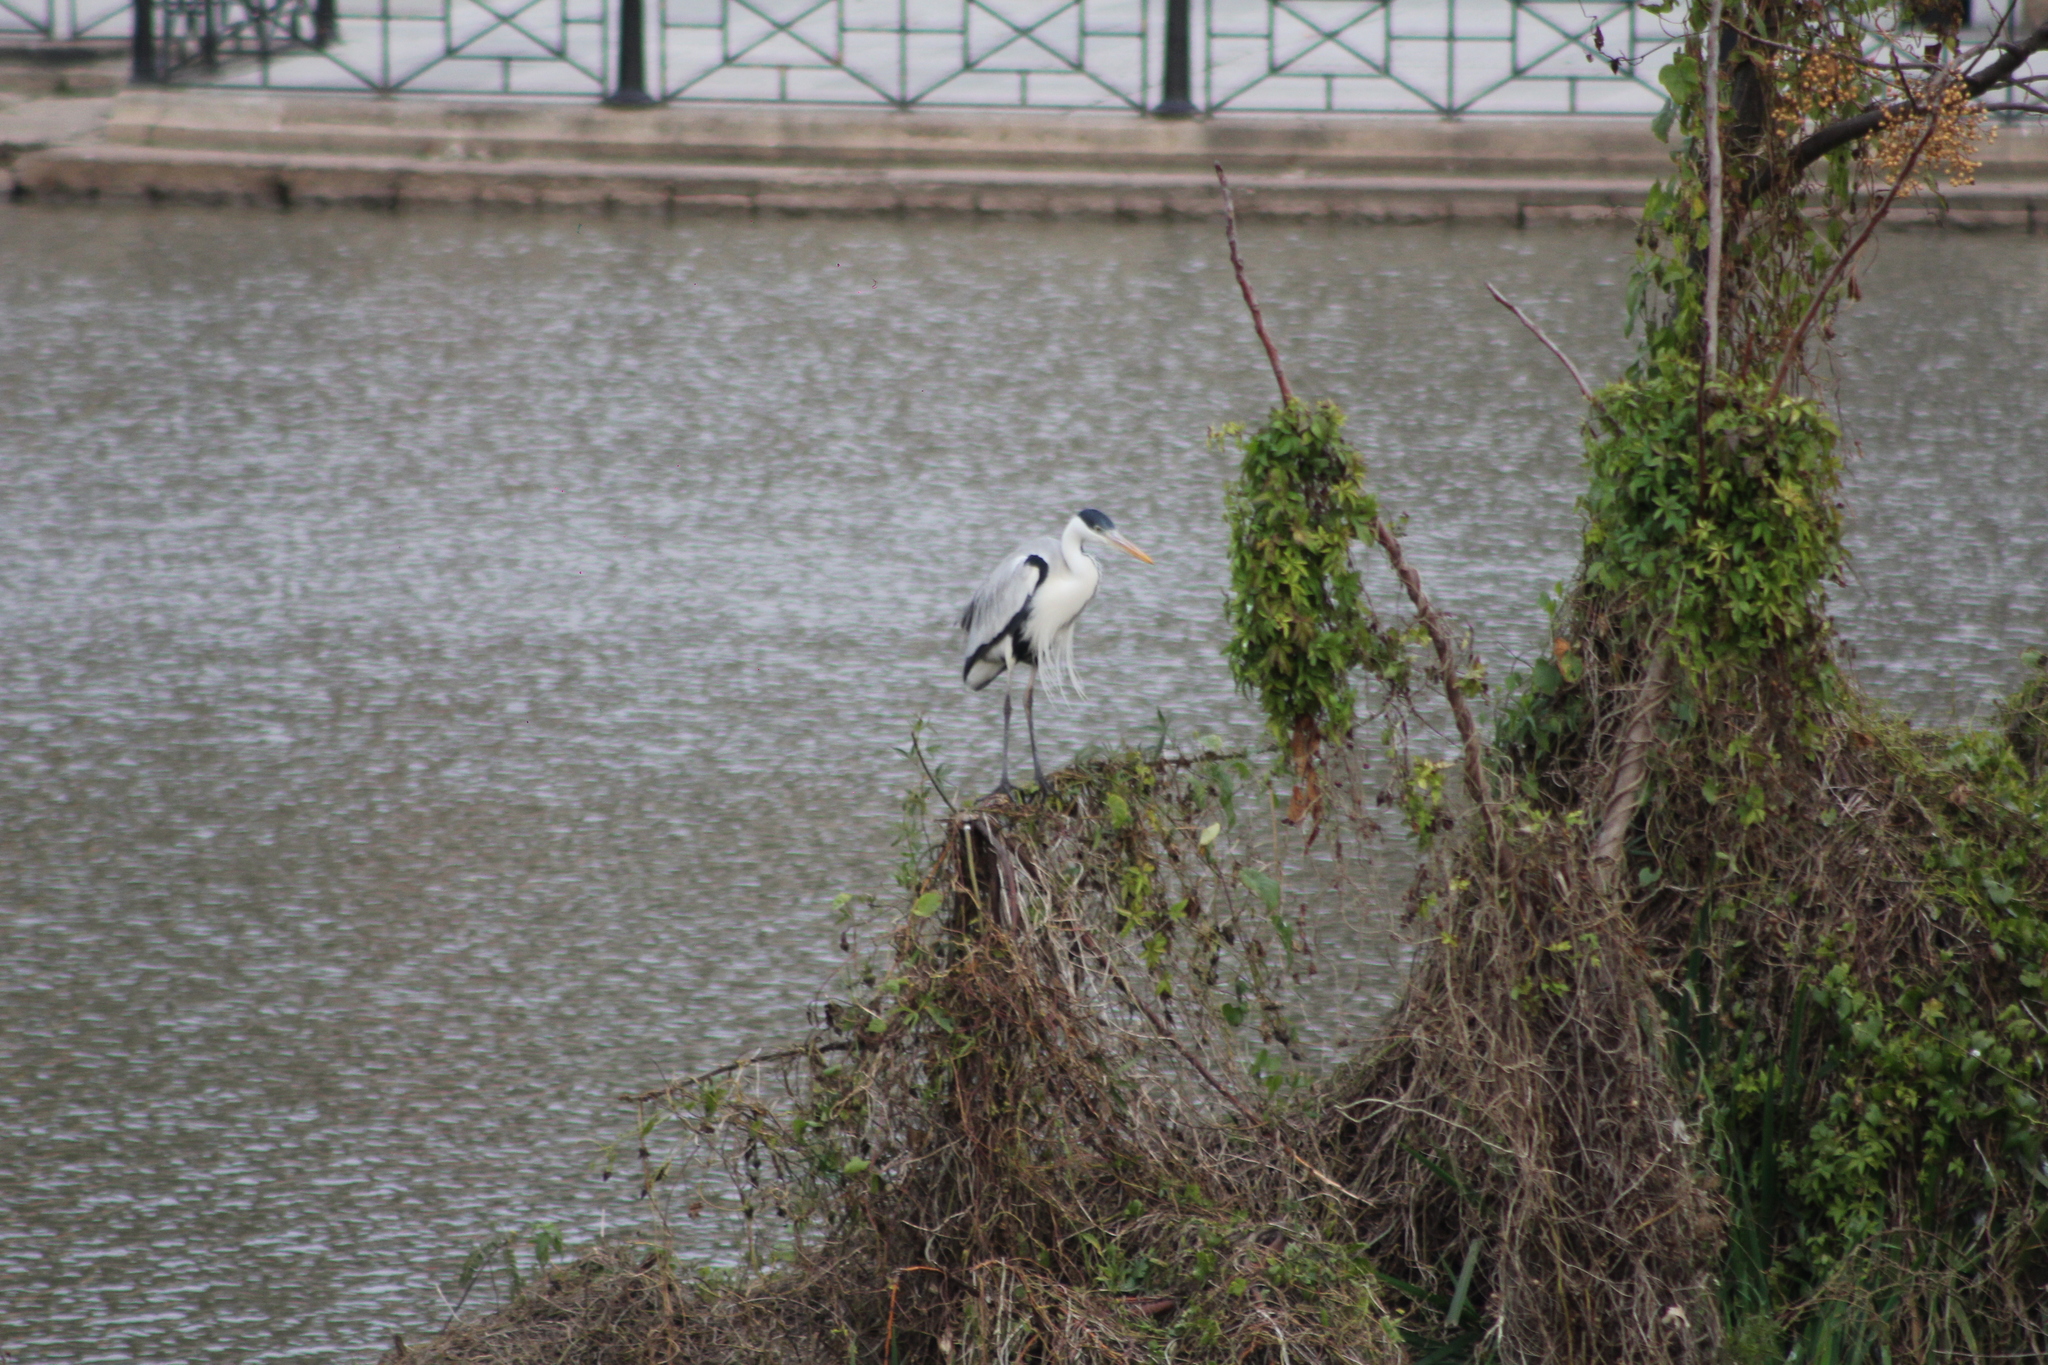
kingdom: Animalia
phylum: Chordata
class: Aves
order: Pelecaniformes
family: Ardeidae
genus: Ardea
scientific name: Ardea cocoi
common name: Cocoi heron
